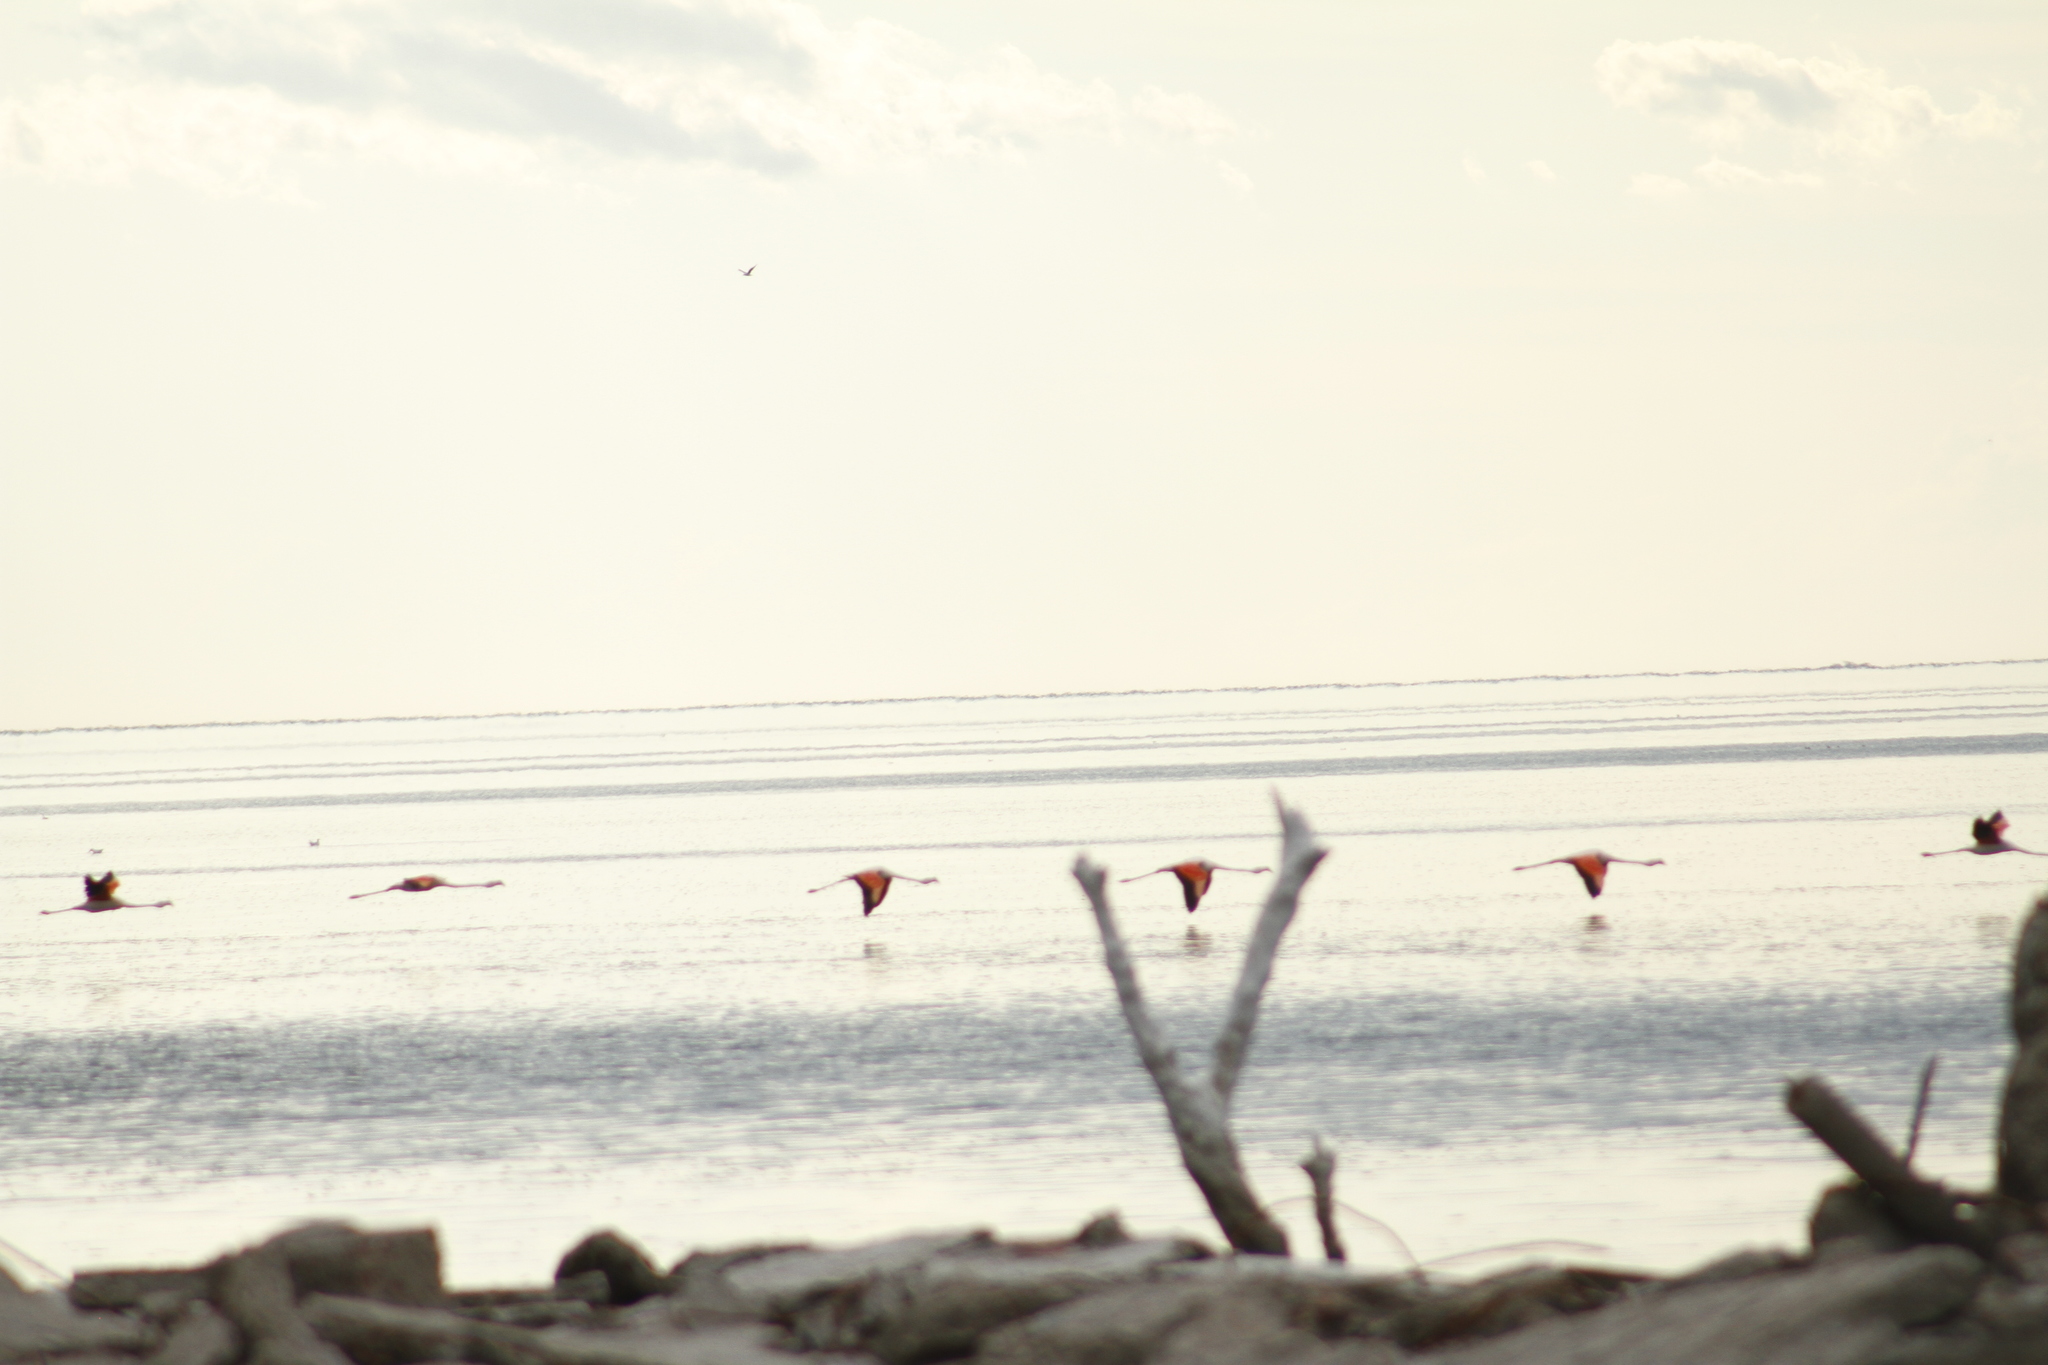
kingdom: Animalia
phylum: Chordata
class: Aves
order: Phoenicopteriformes
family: Phoenicopteridae
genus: Phoenicopterus
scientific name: Phoenicopterus chilensis
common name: Chilean flamingo
